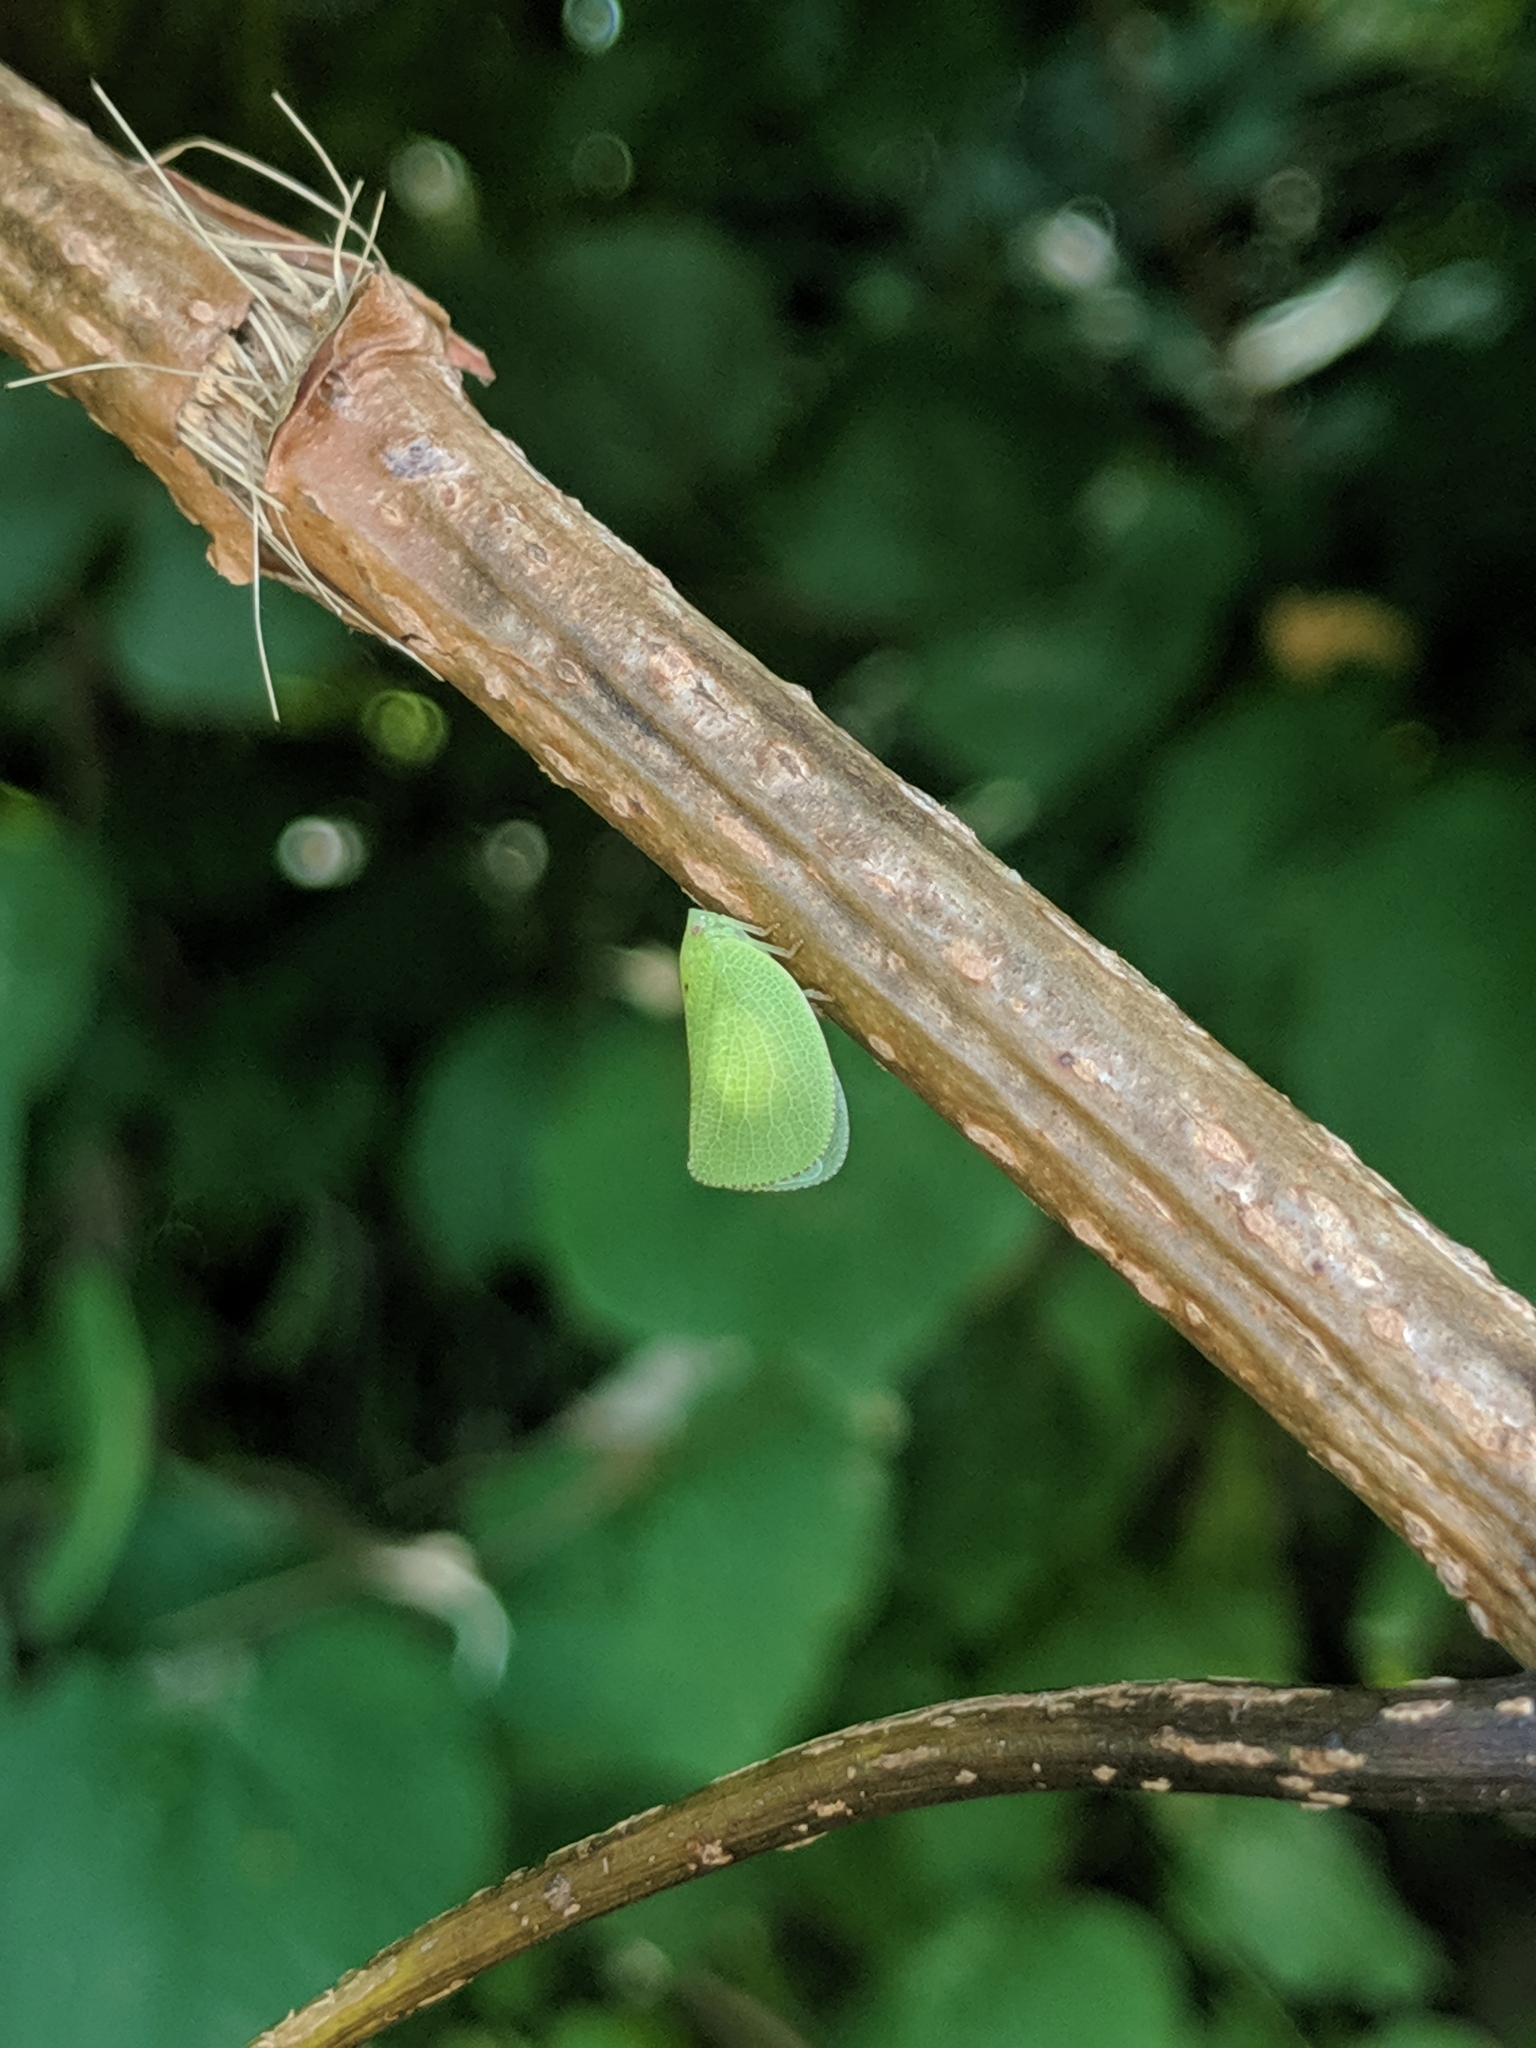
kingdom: Animalia
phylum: Arthropoda
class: Insecta
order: Hemiptera
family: Acanaloniidae
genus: Acanalonia
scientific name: Acanalonia conica
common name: Green cone-headed planthopper
